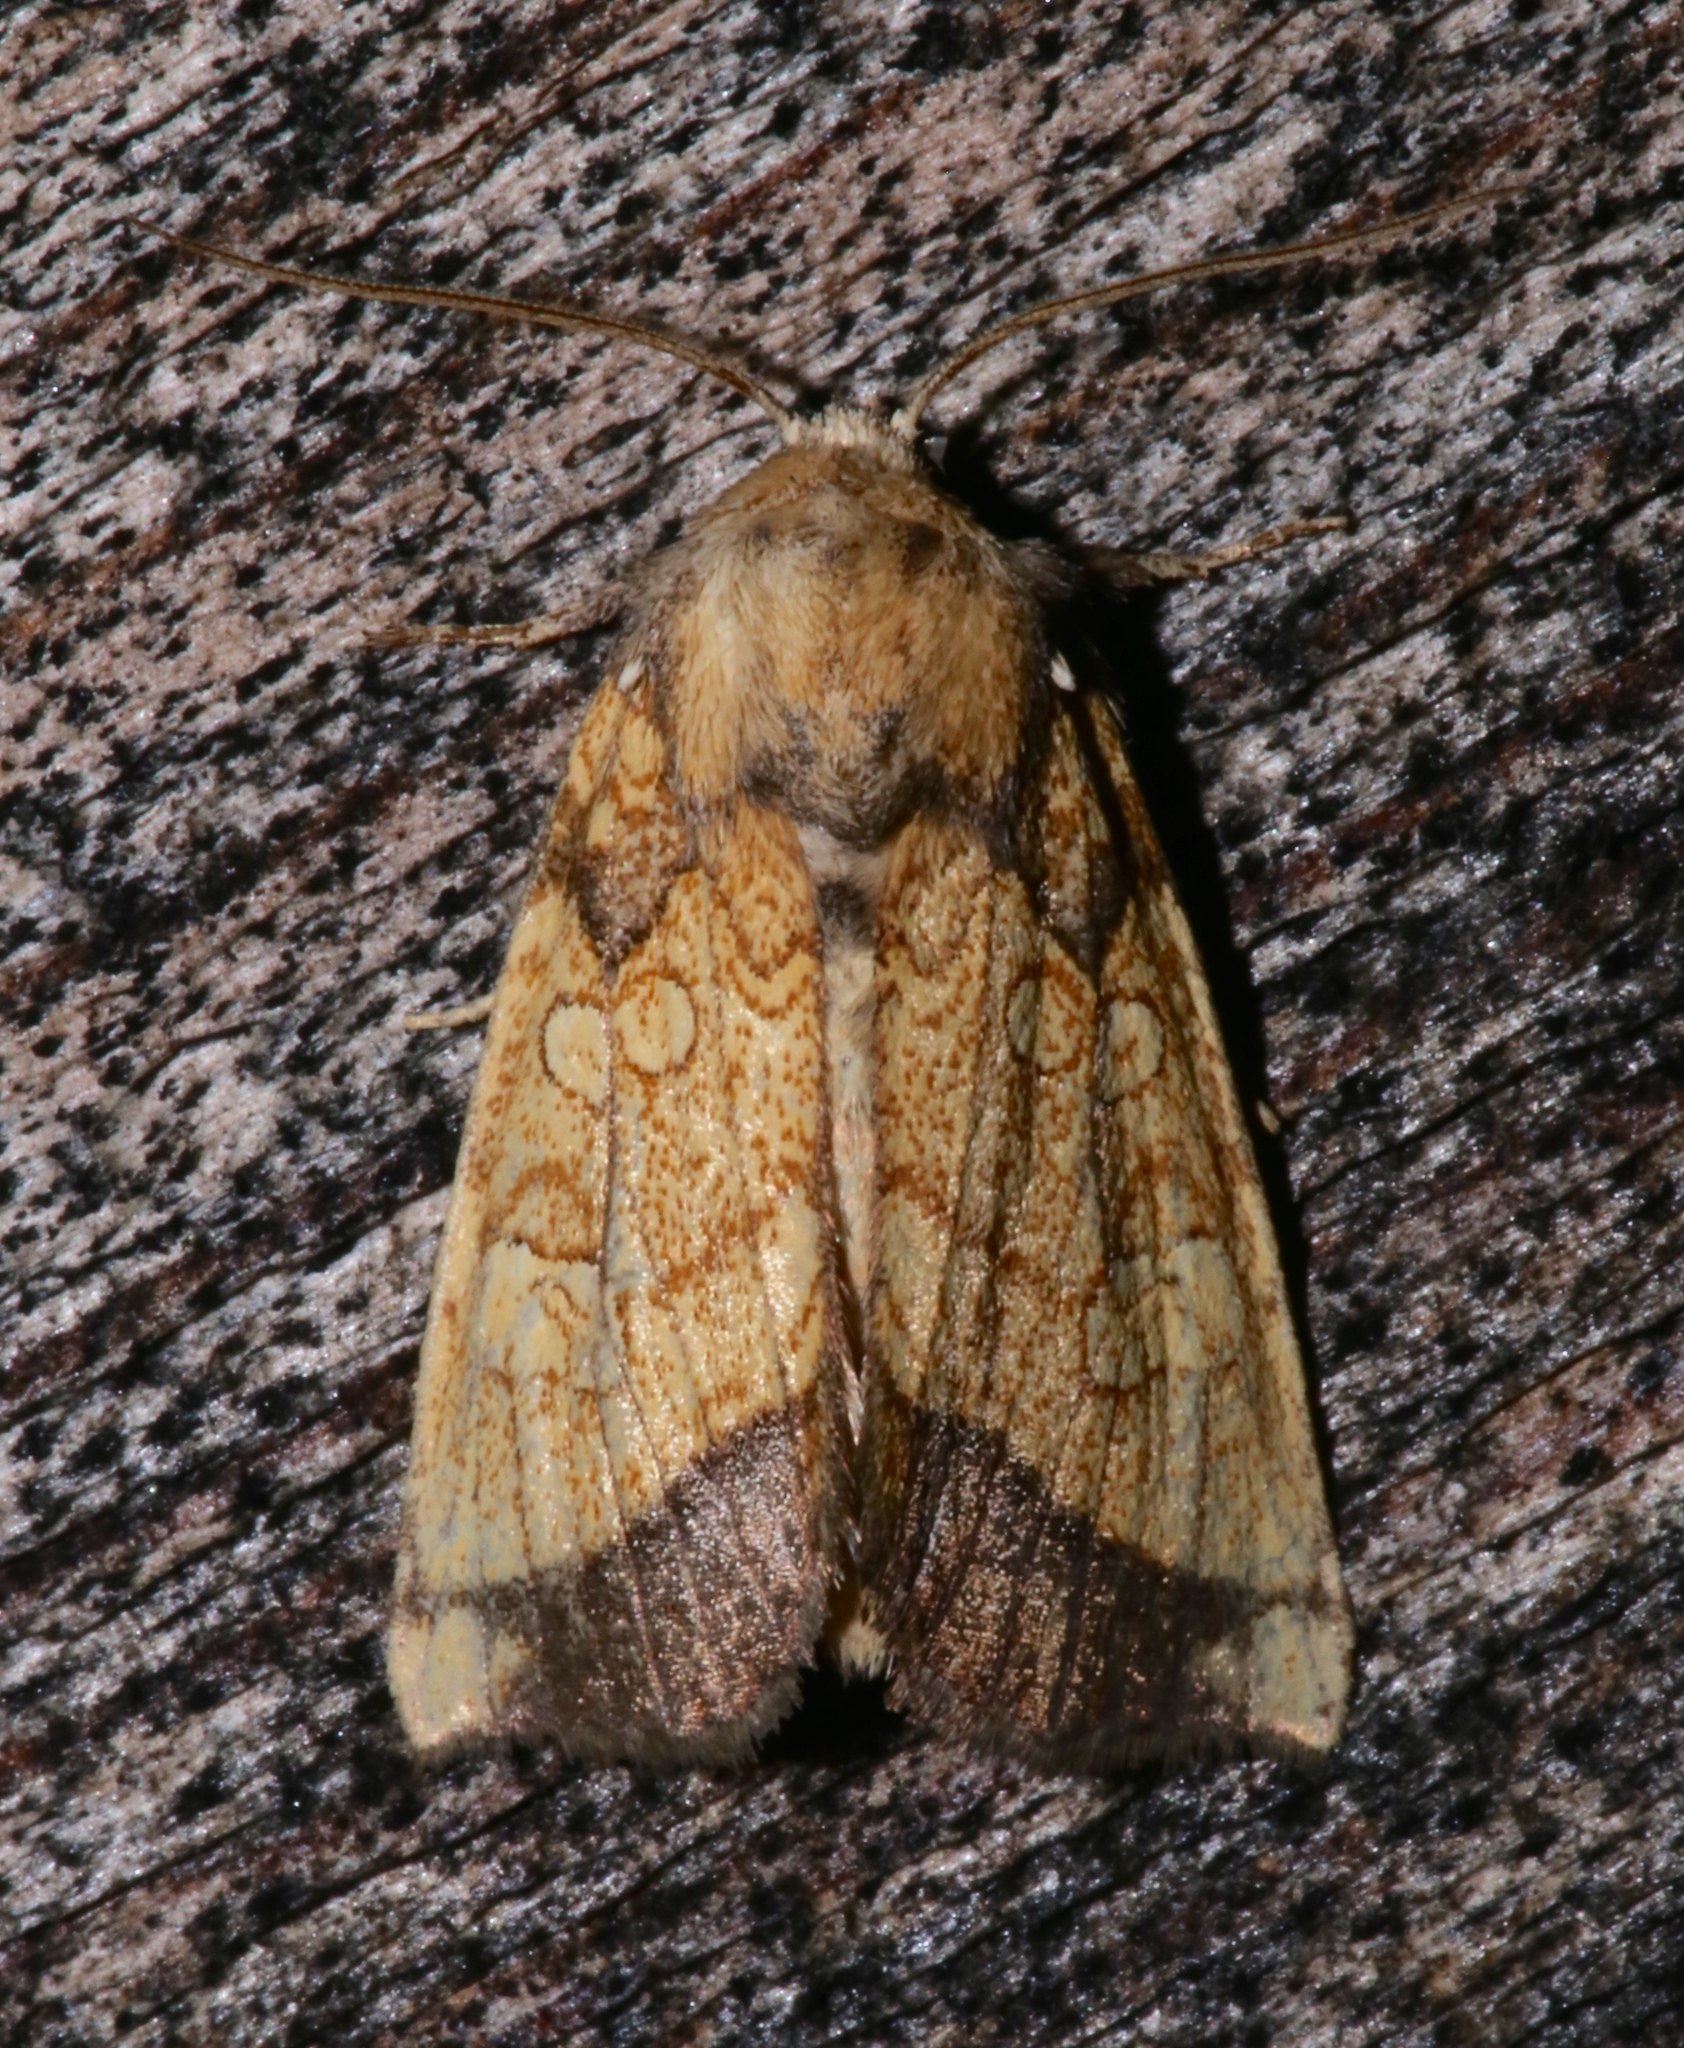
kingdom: Animalia
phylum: Arthropoda
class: Insecta
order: Lepidoptera
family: Noctuidae
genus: Papaipema
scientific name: Papaipema rigida
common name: Rigid sunflower borer moth
